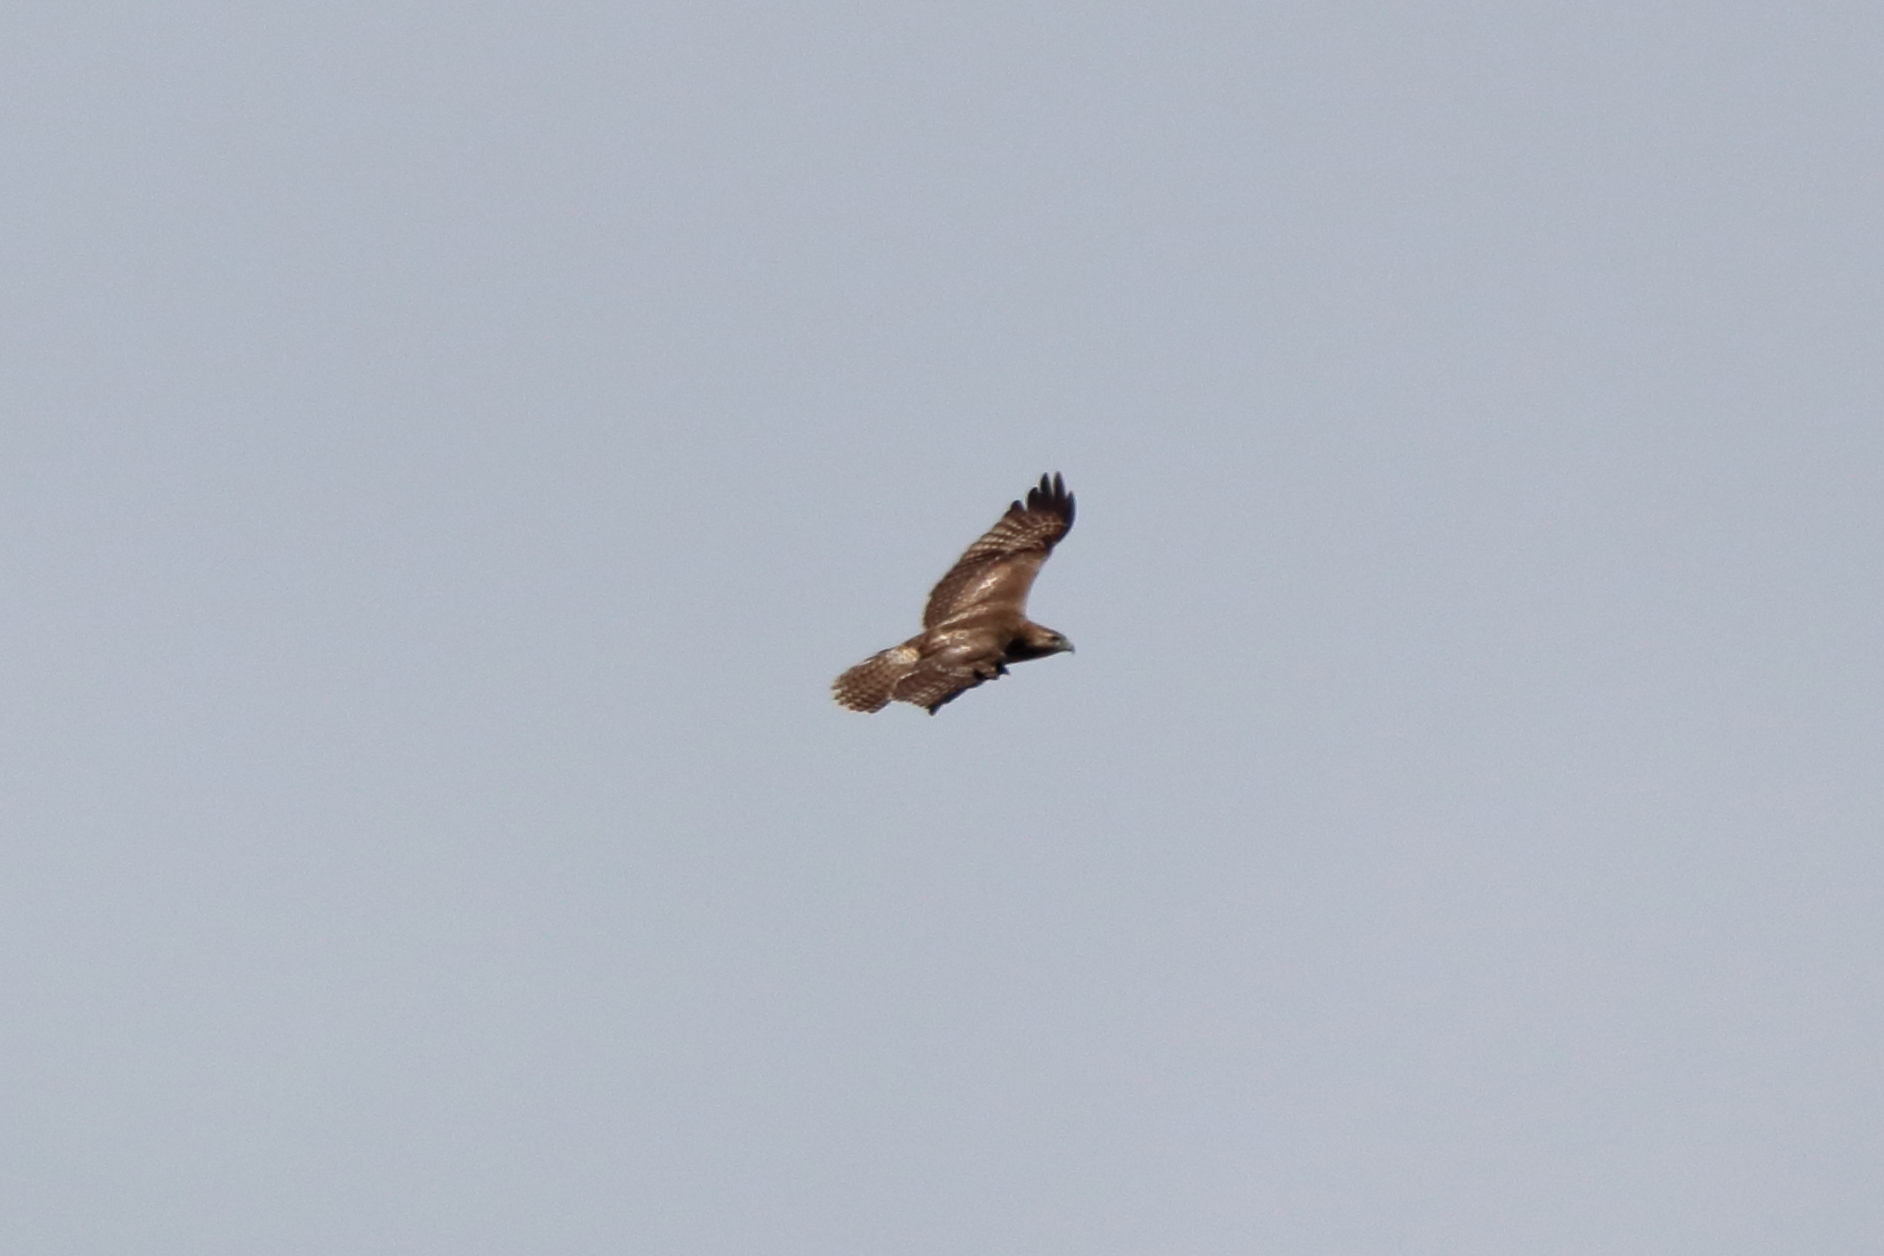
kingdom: Animalia
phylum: Chordata
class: Aves
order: Accipitriformes
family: Accipitridae
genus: Buteo
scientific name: Buteo jamaicensis
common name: Red-tailed hawk
